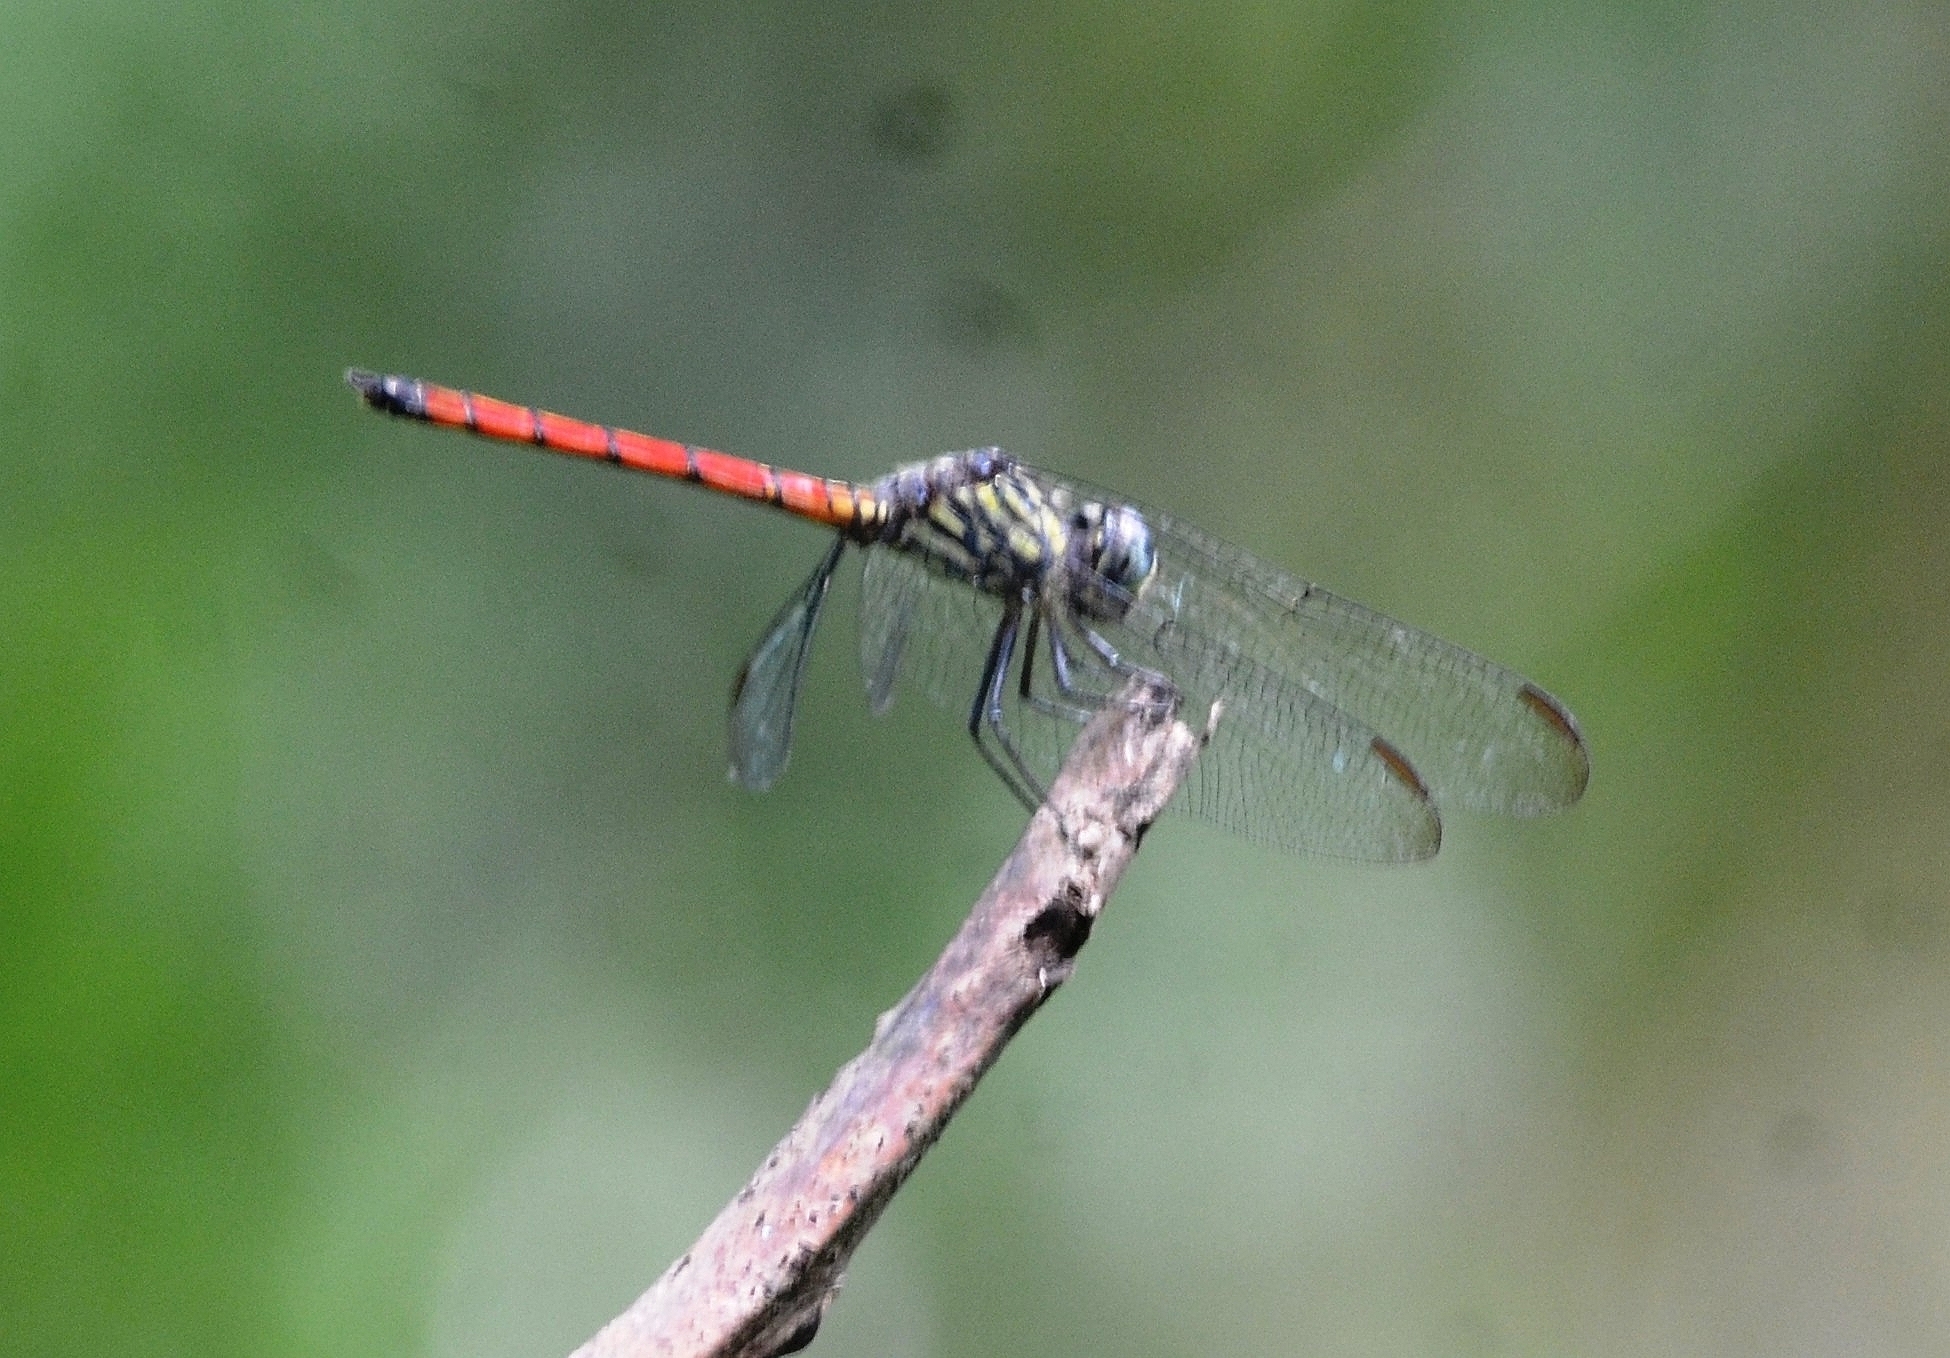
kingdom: Animalia
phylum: Arthropoda
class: Insecta
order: Odonata
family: Libellulidae
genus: Lathrecista
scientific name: Lathrecista asiatica
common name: Scarlet grenadier
